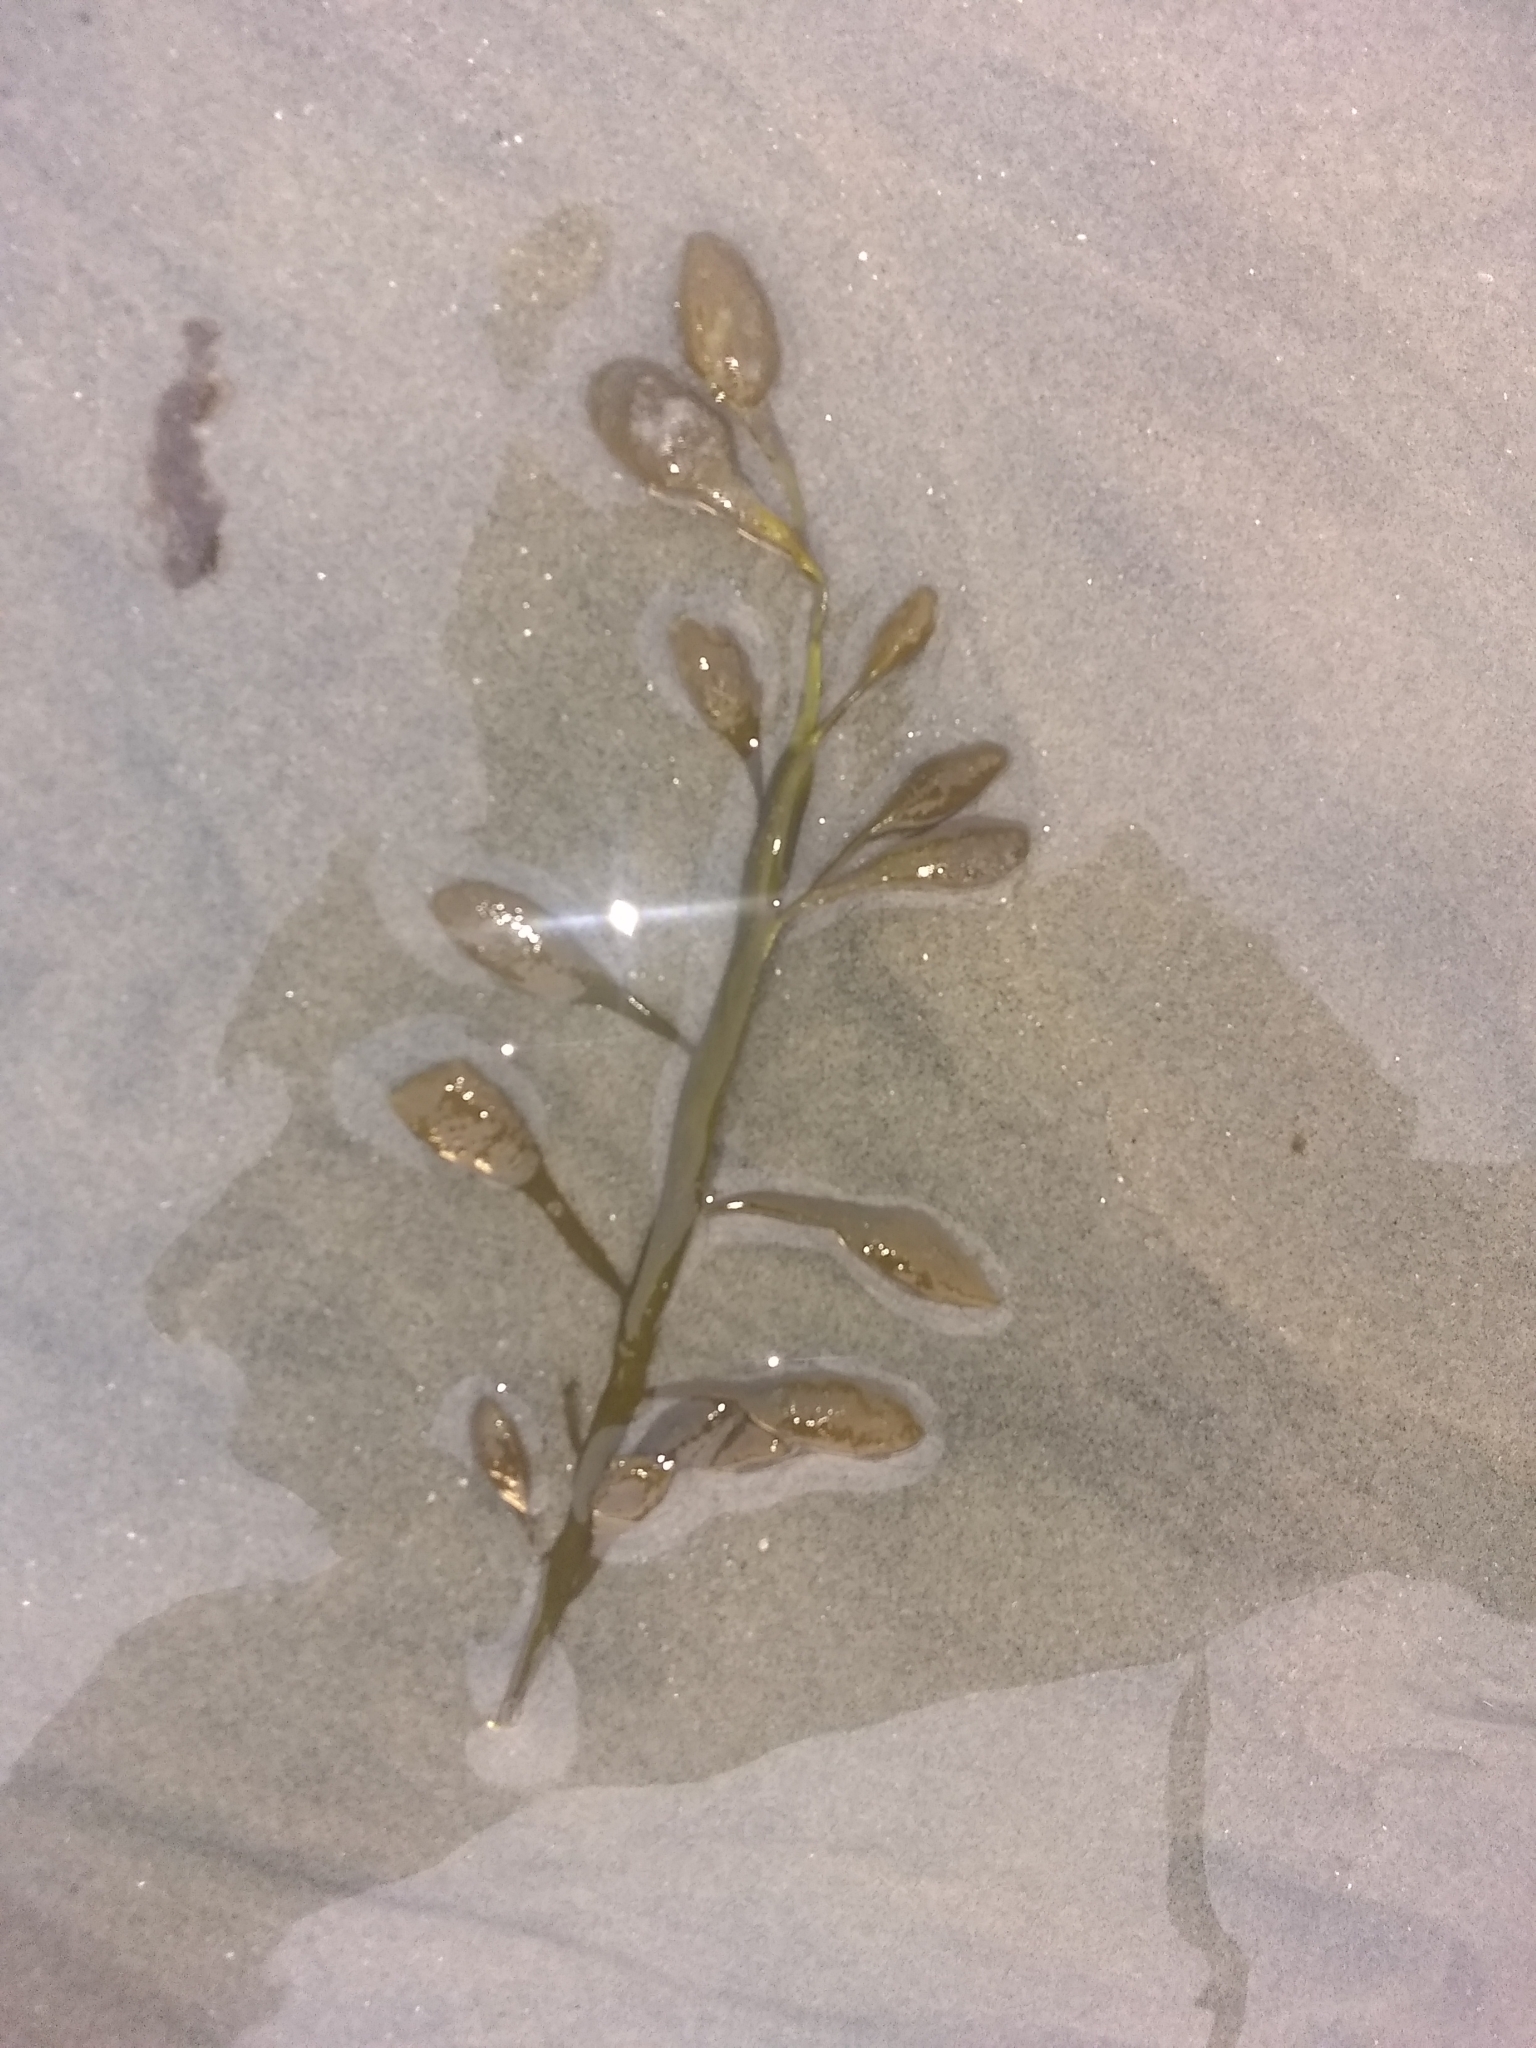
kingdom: Chromista
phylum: Ochrophyta
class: Phaeophyceae
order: Fucales
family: Fucaceae
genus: Ascophyllum
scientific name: Ascophyllum nodosum
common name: Knotted wrack
